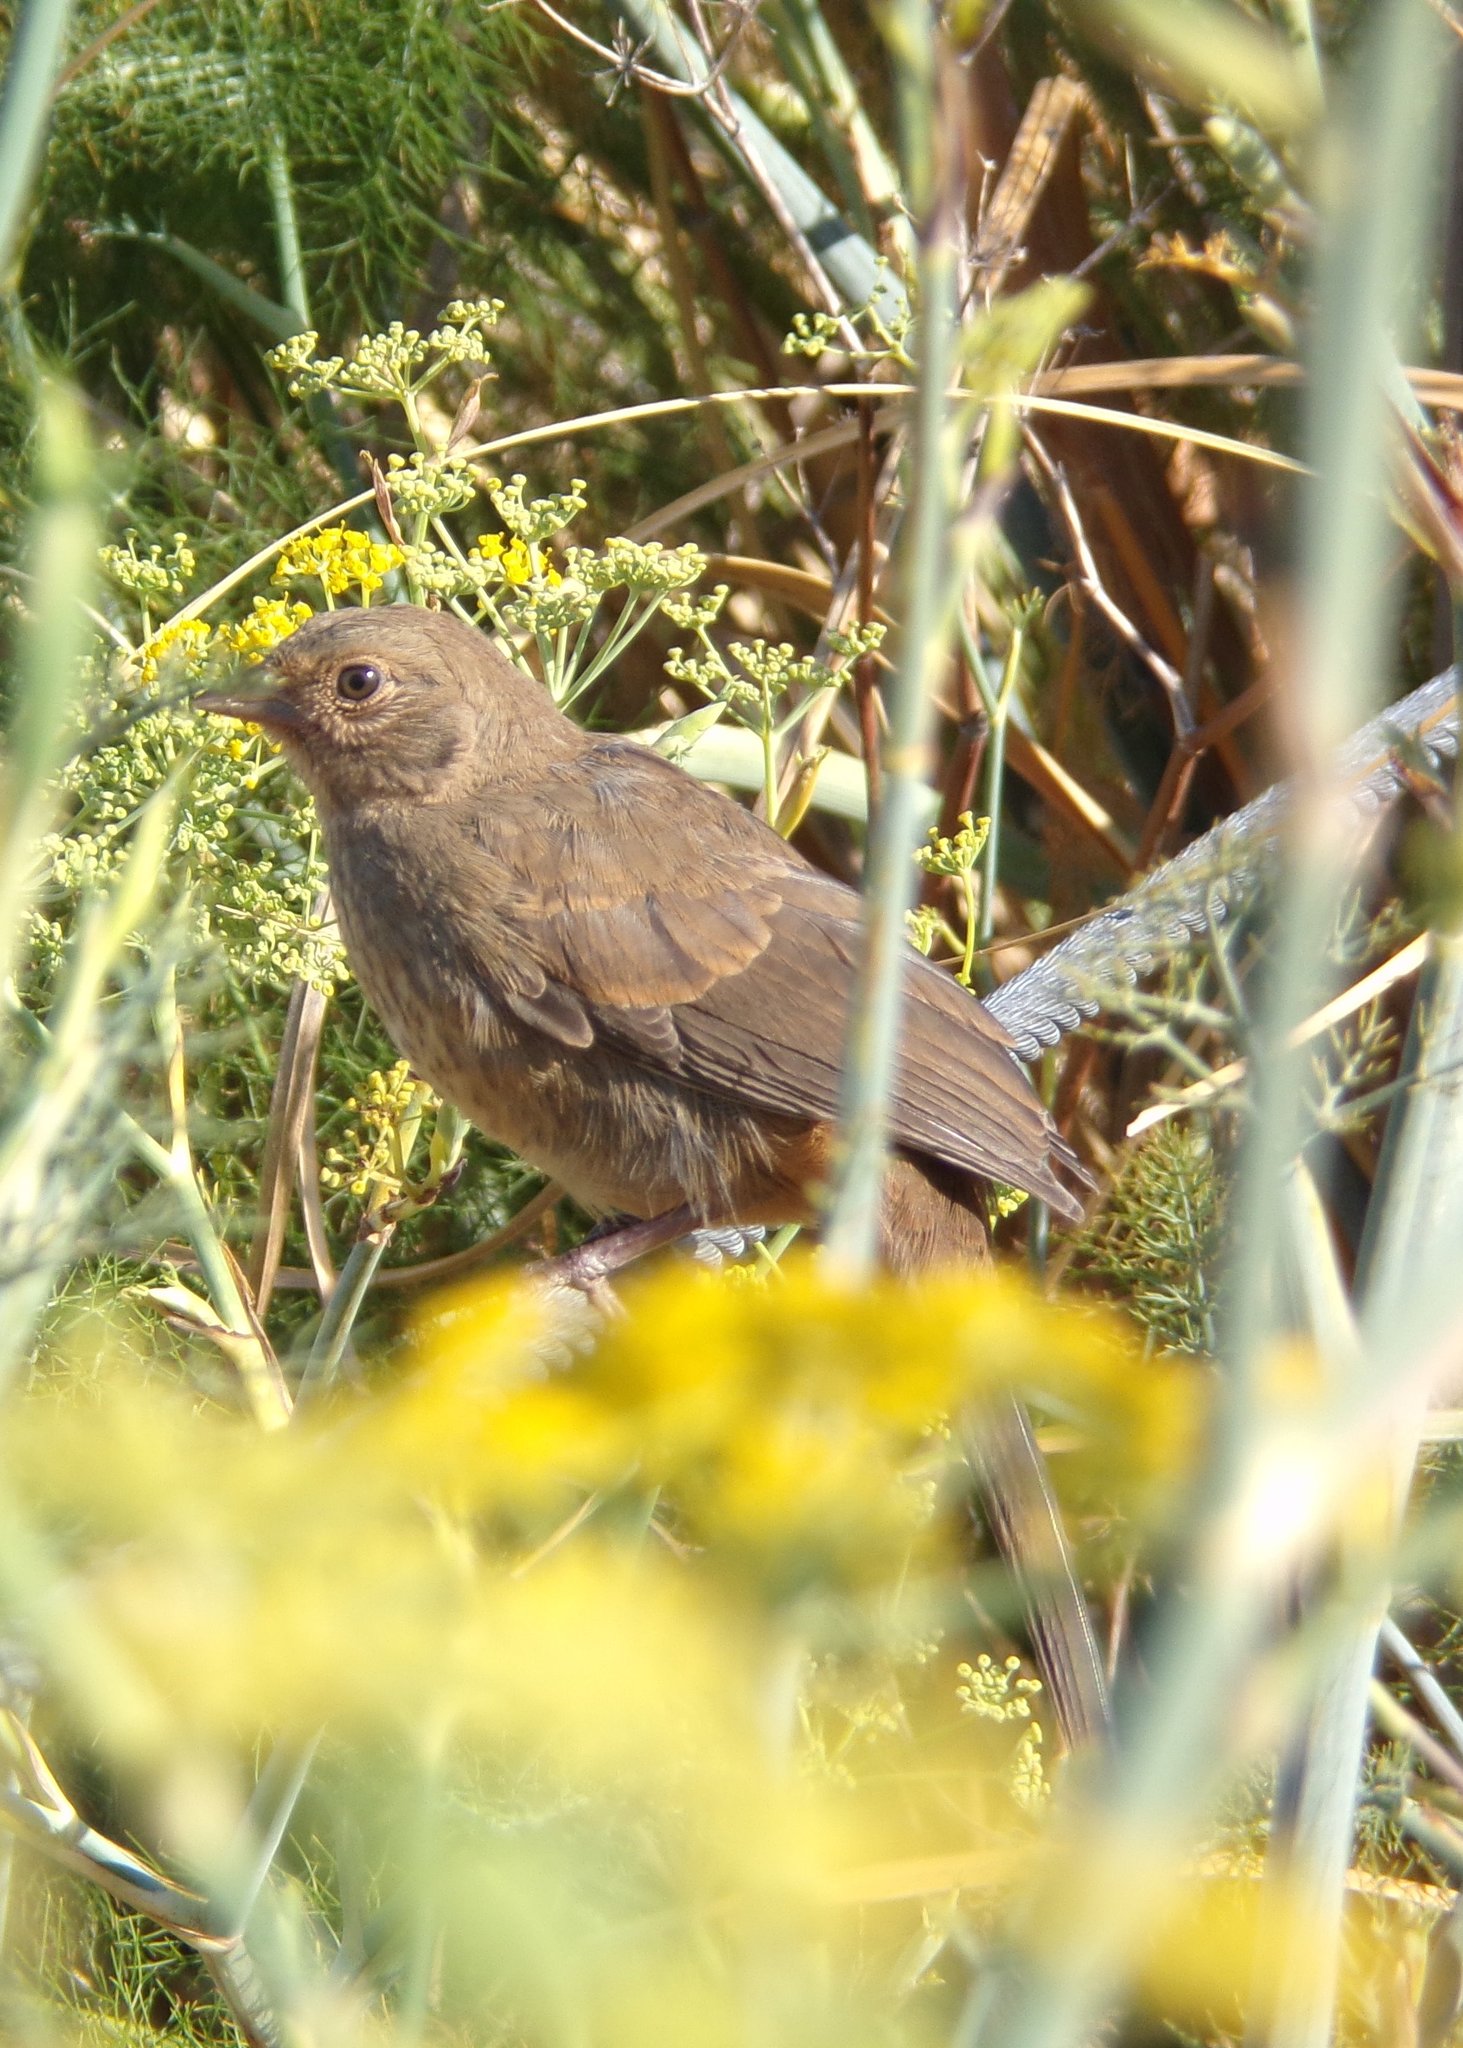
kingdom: Animalia
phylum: Chordata
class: Aves
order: Passeriformes
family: Passerellidae
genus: Melozone
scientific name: Melozone crissalis
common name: California towhee
